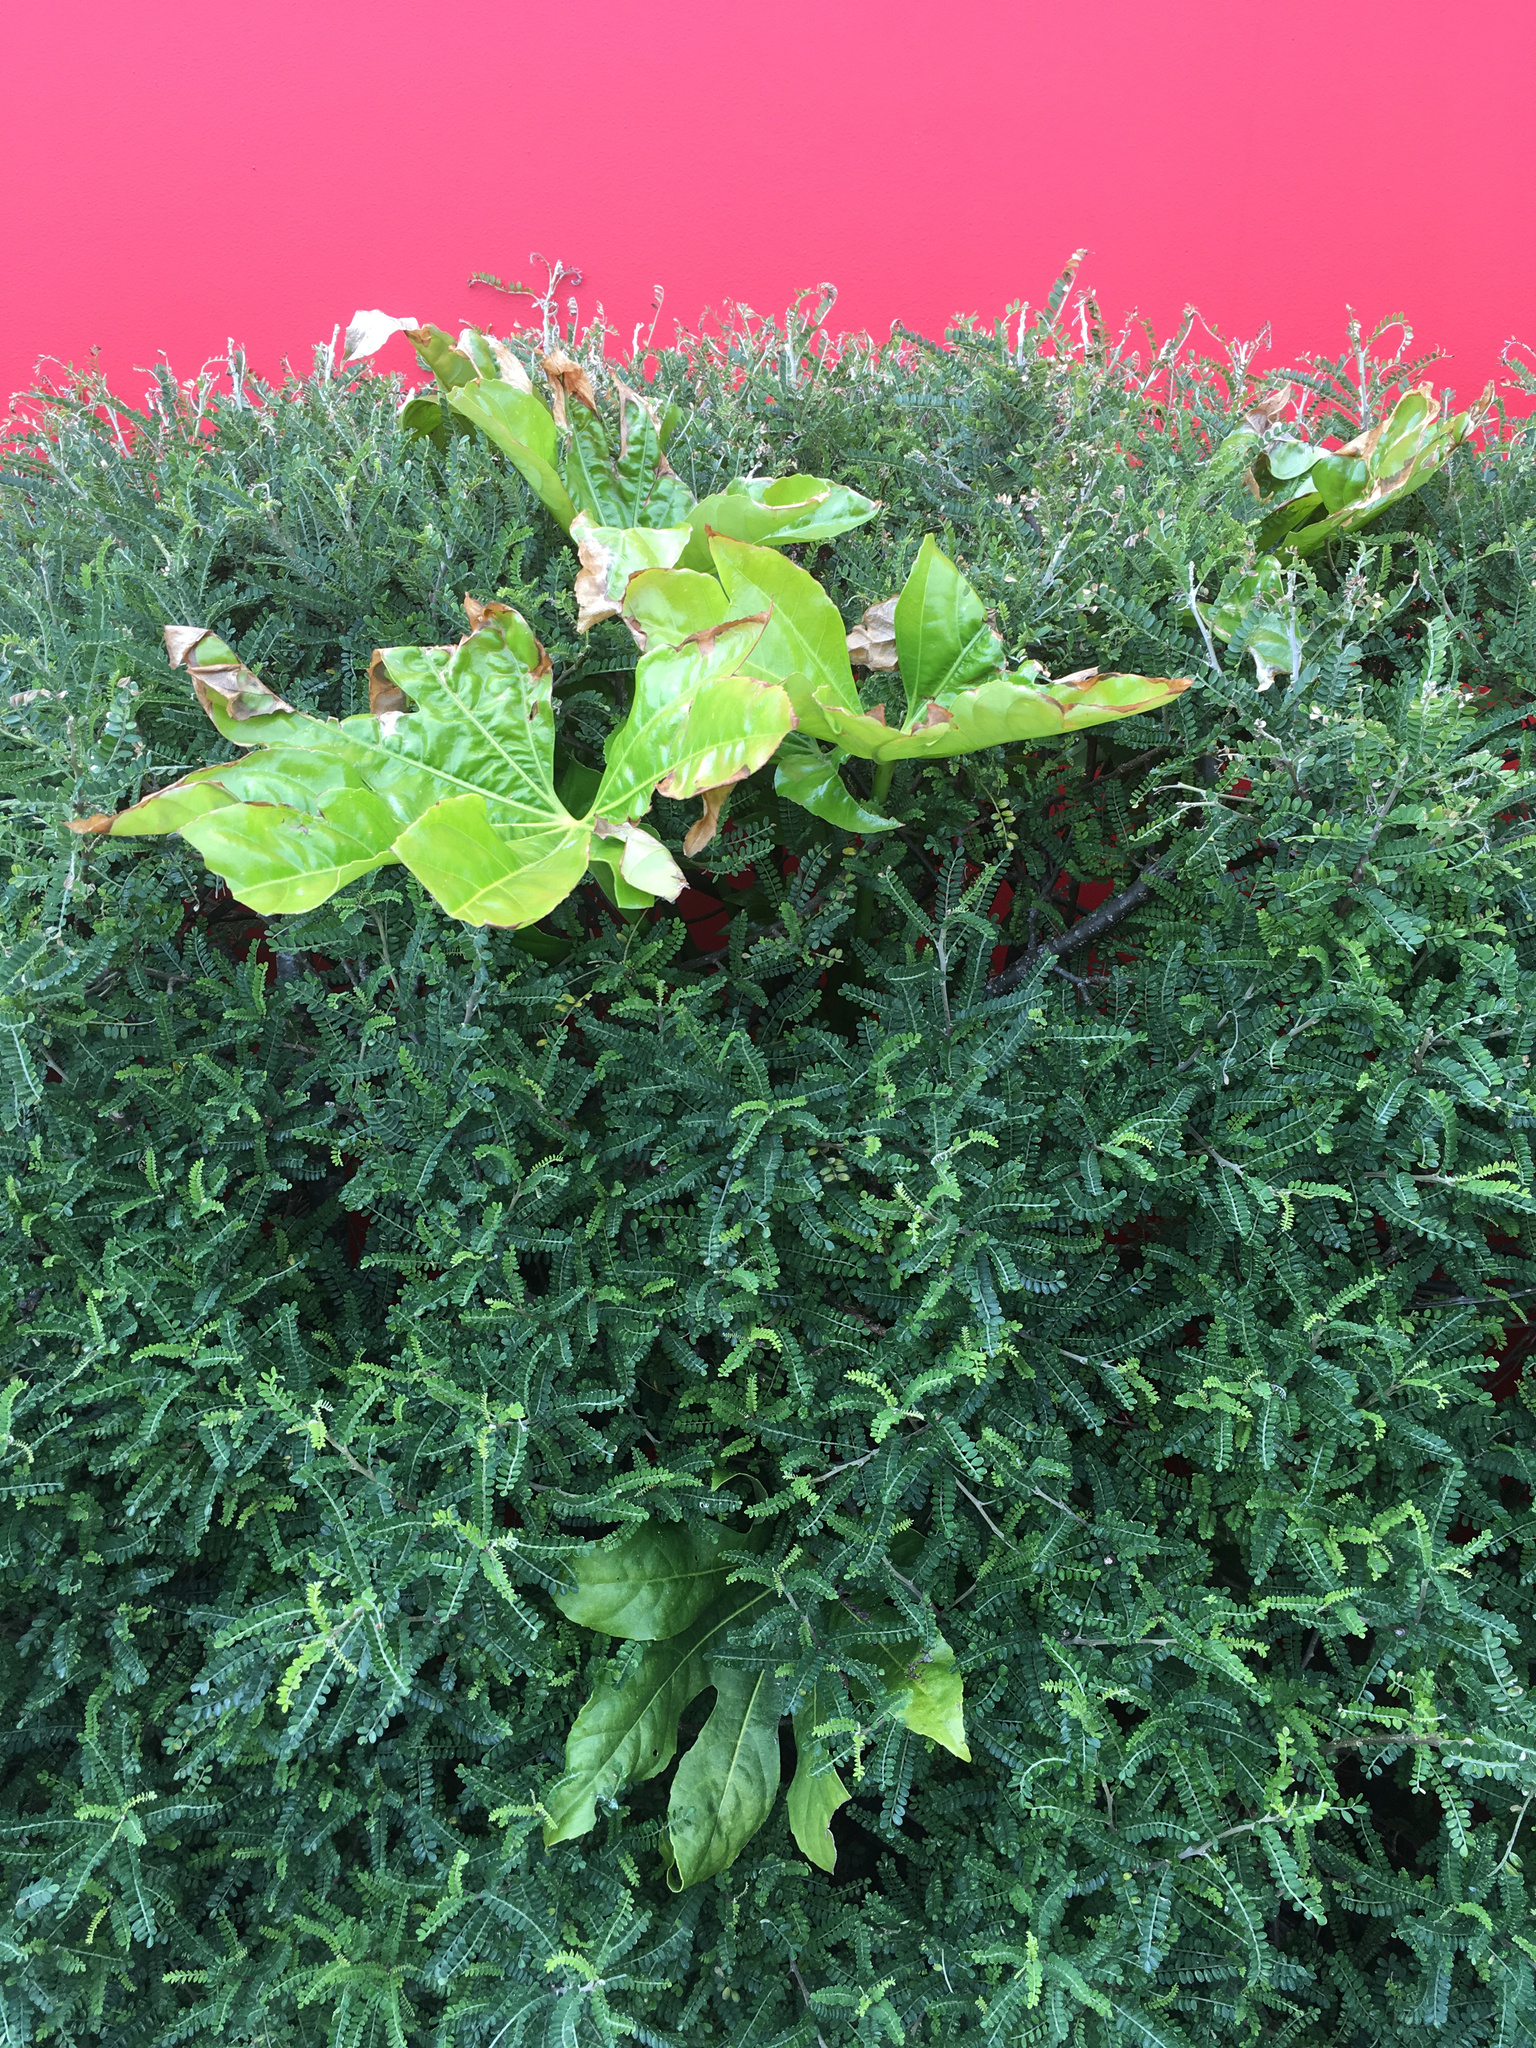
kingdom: Plantae
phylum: Tracheophyta
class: Magnoliopsida
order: Apiales
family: Araliaceae
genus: Fatsia
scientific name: Fatsia japonica
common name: Fatsia
